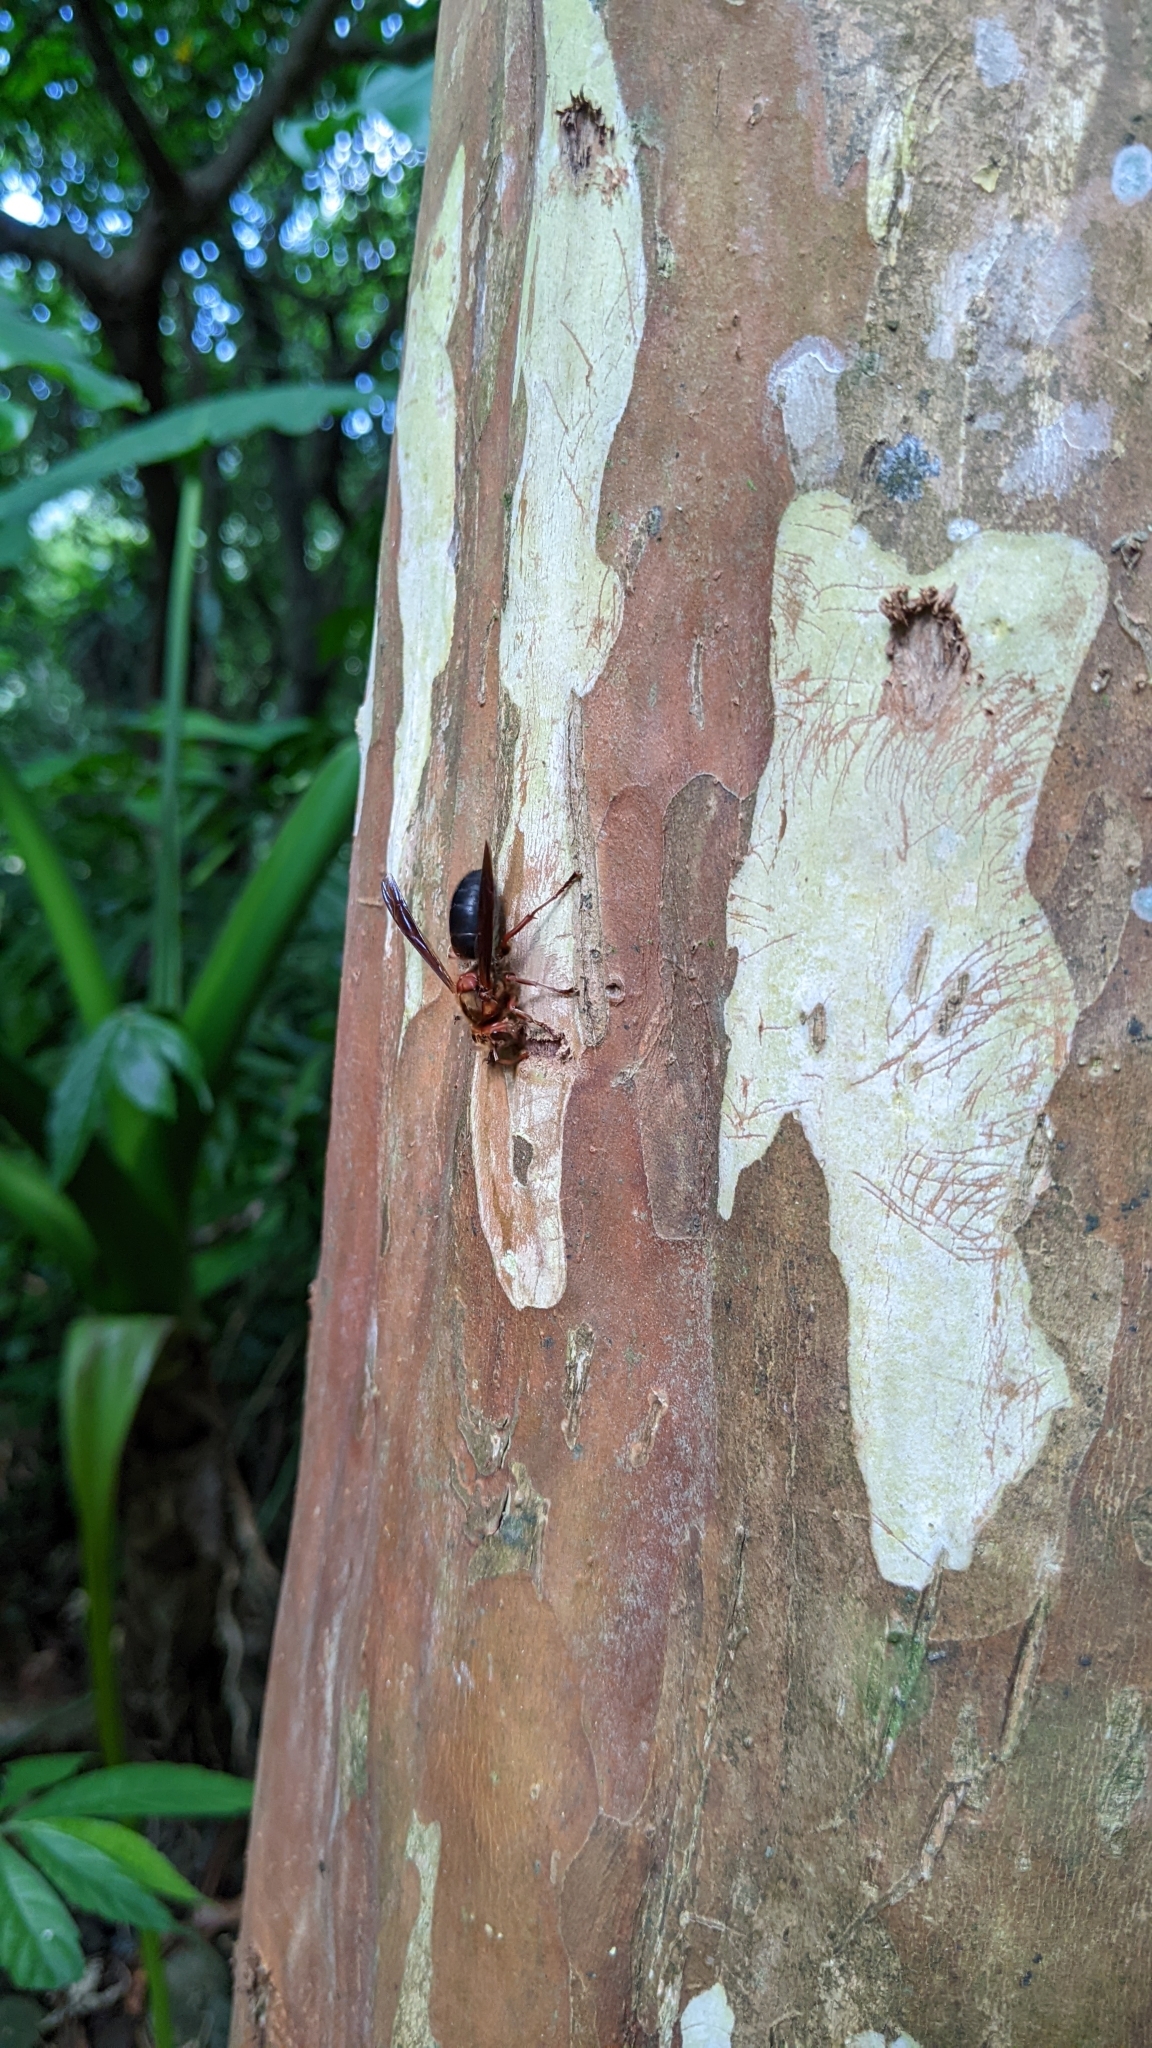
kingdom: Animalia
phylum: Arthropoda
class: Insecta
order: Hymenoptera
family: Vespidae
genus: Vespa
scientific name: Vespa basalis
